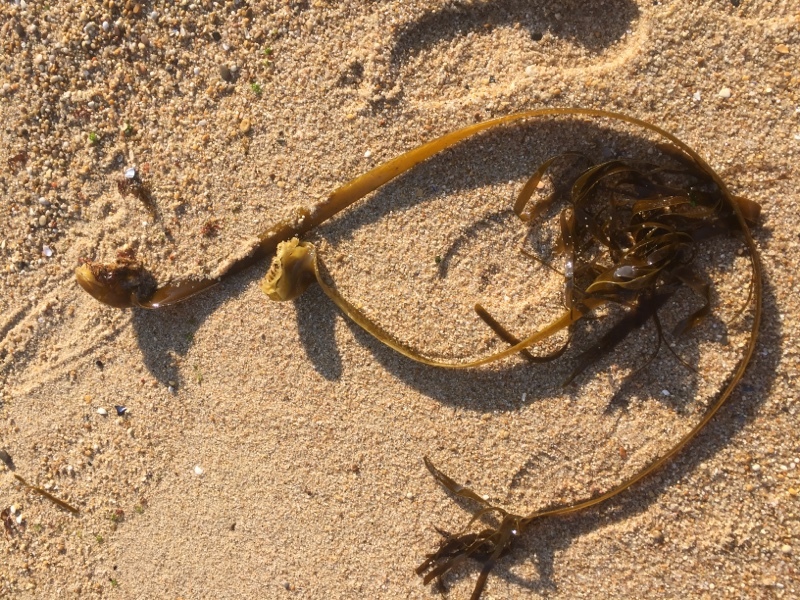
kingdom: Chromista
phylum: Ochrophyta
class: Phaeophyceae
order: Tilopteridales
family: Phyllariaceae
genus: Saccorhiza
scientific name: Saccorhiza polyschides
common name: Furbelows
